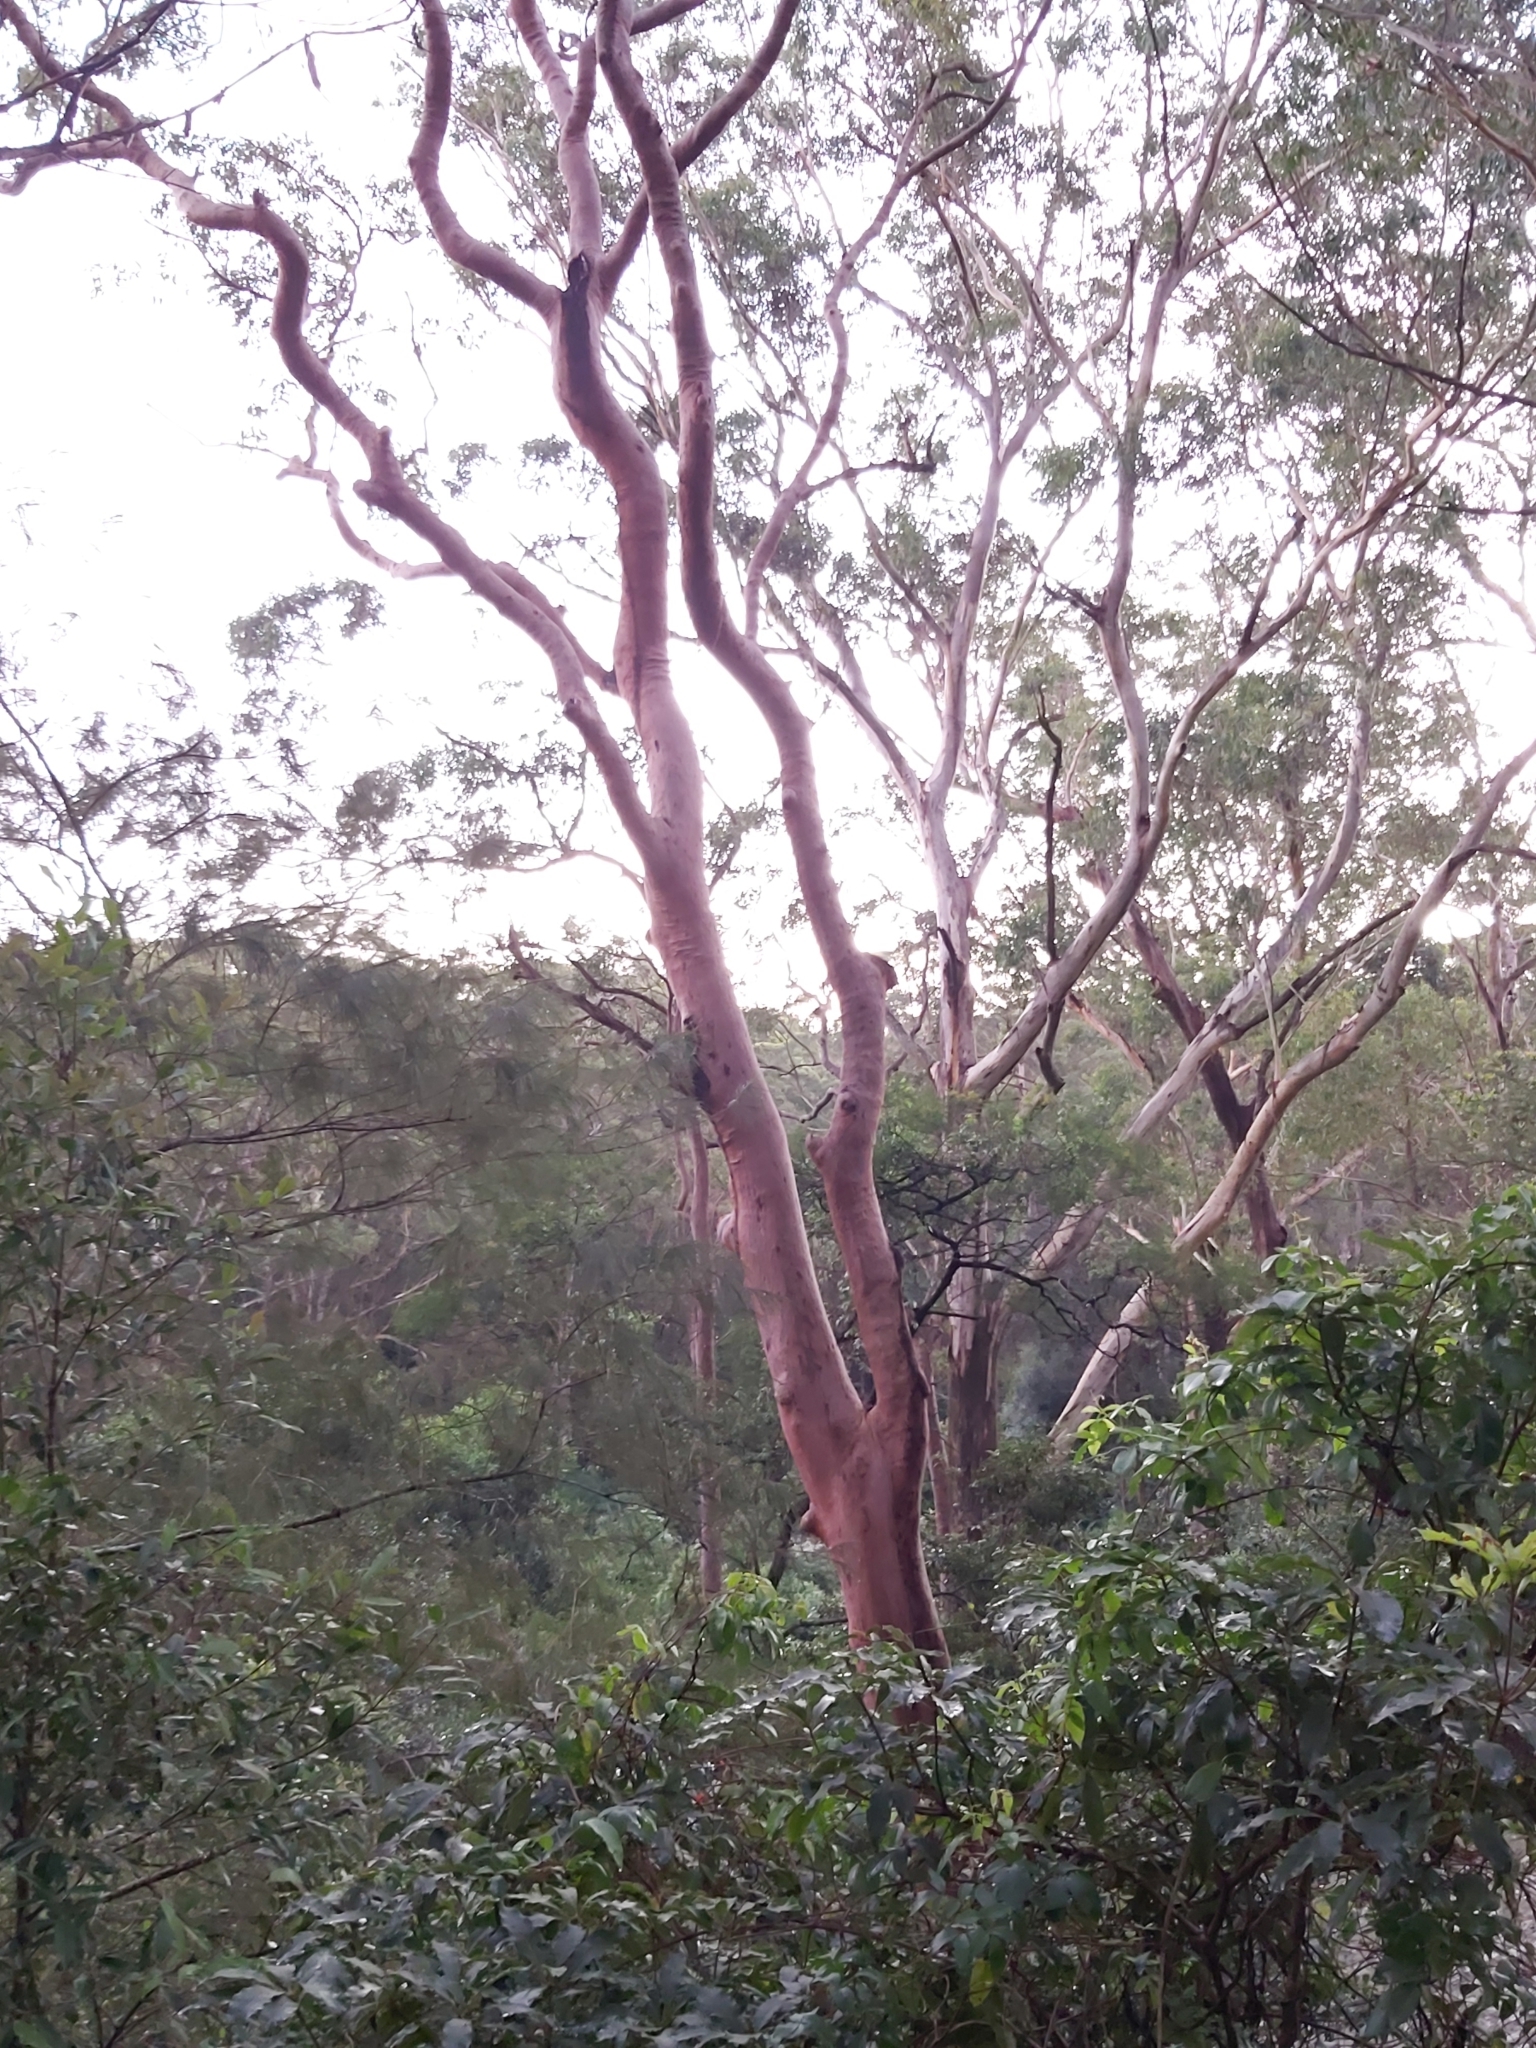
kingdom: Plantae
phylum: Tracheophyta
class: Magnoliopsida
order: Myrtales
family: Myrtaceae
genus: Angophora
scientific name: Angophora costata
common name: Gum myrtle
